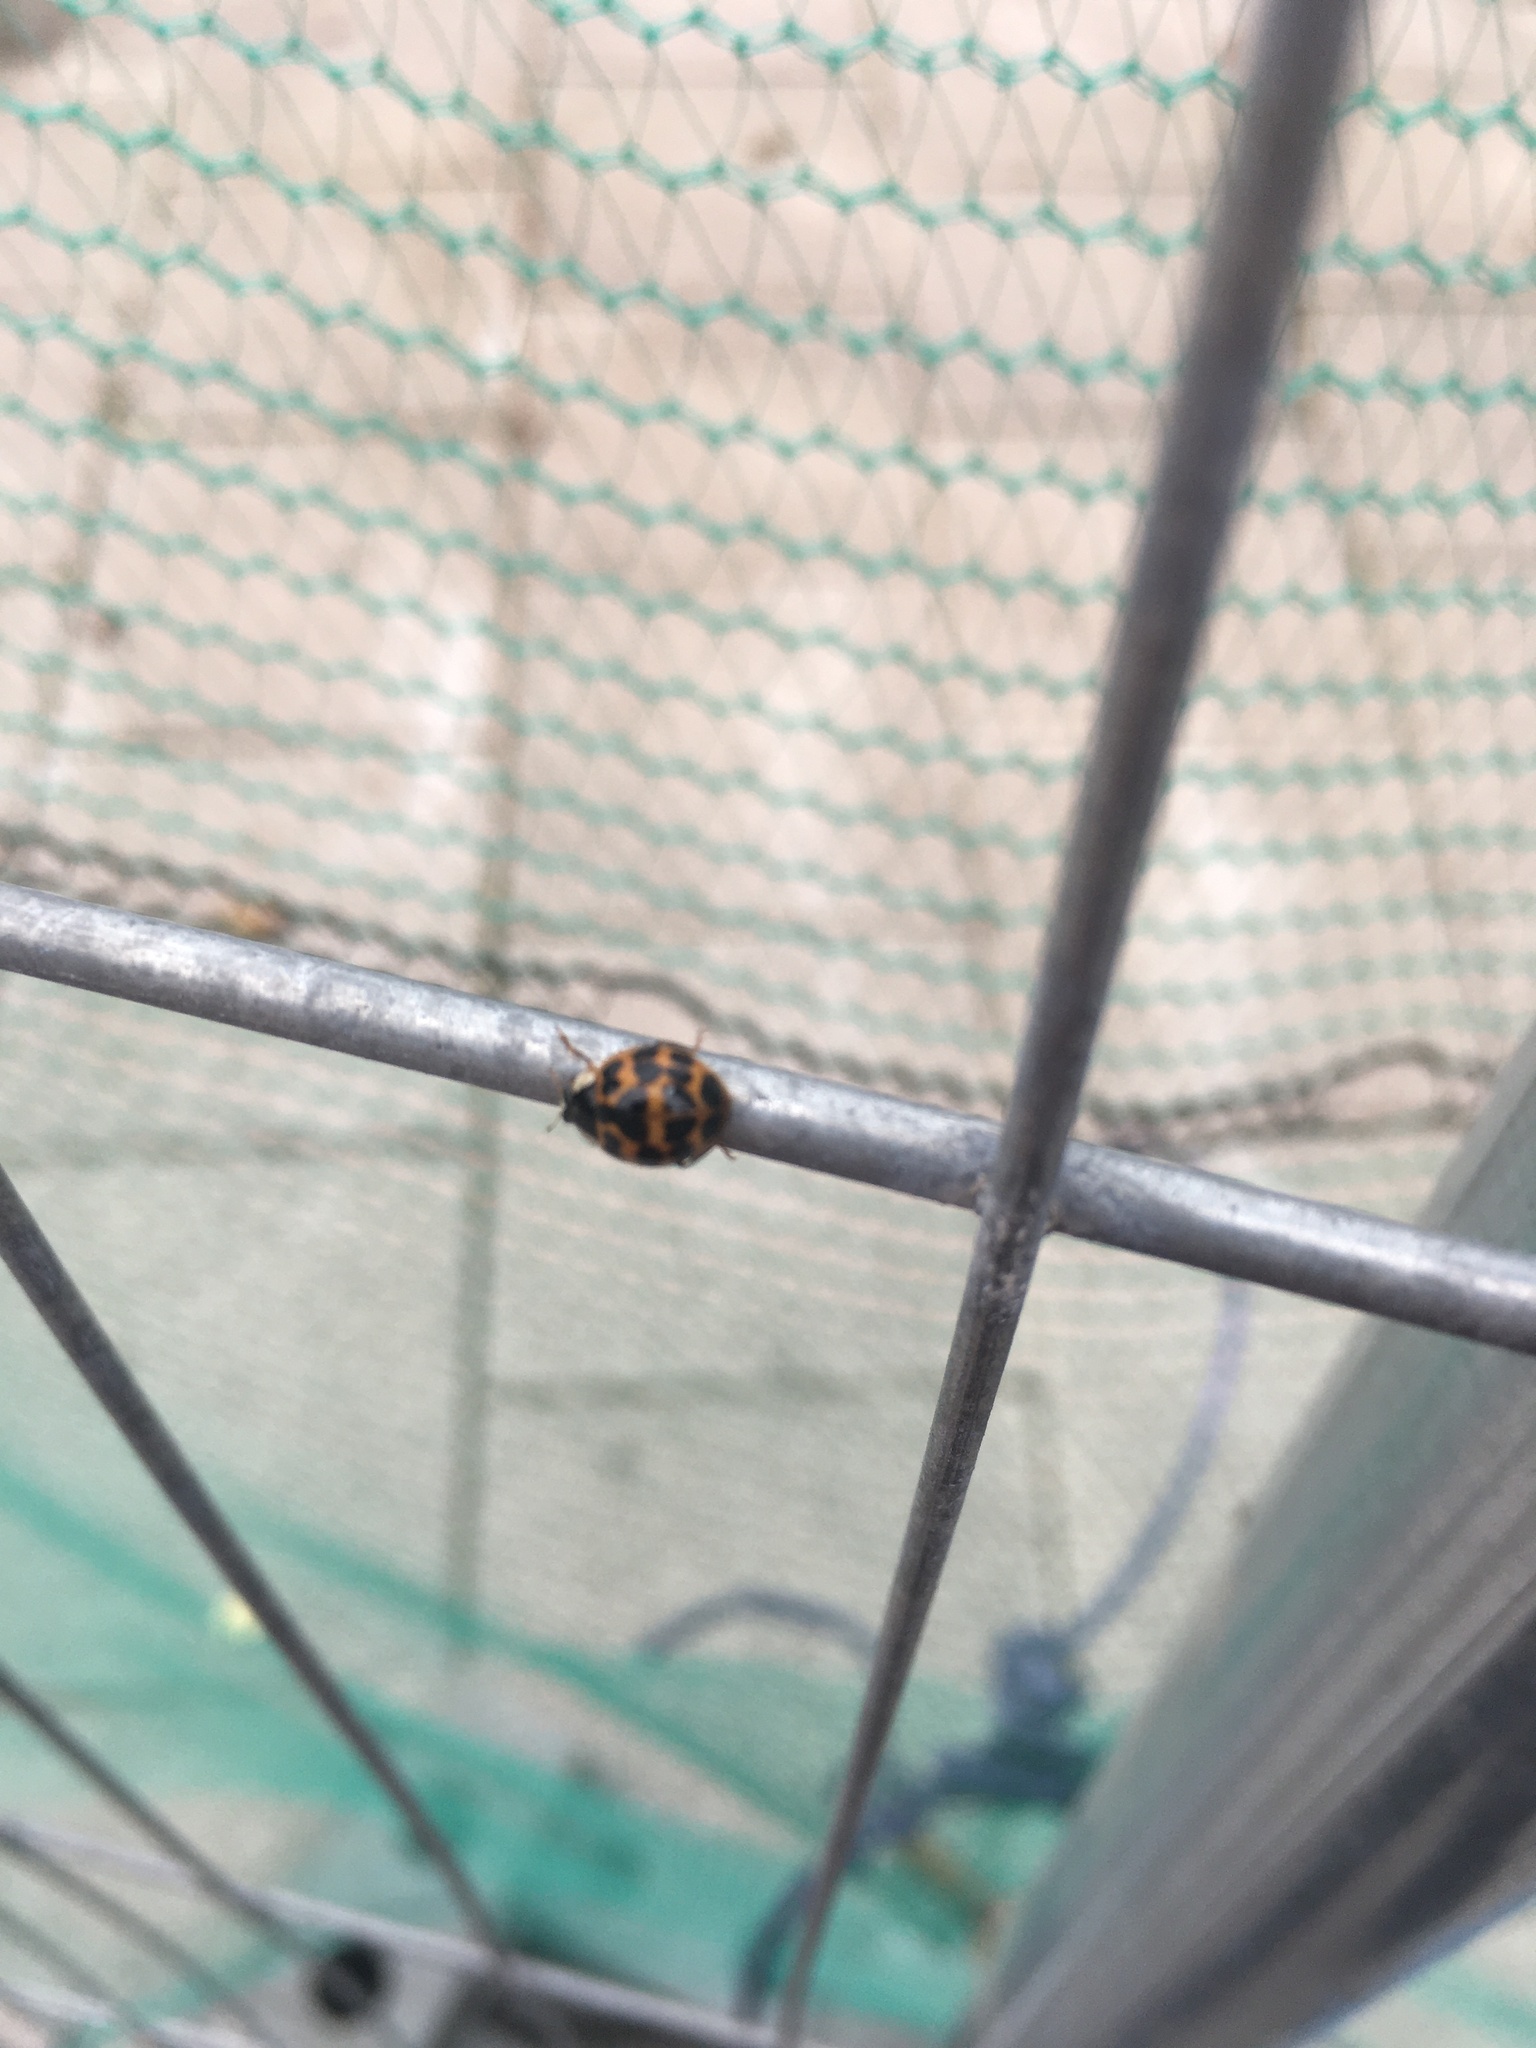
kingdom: Animalia
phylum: Arthropoda
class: Insecta
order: Coleoptera
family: Coccinellidae
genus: Harmonia
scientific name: Harmonia axyridis
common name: Harlequin ladybird
